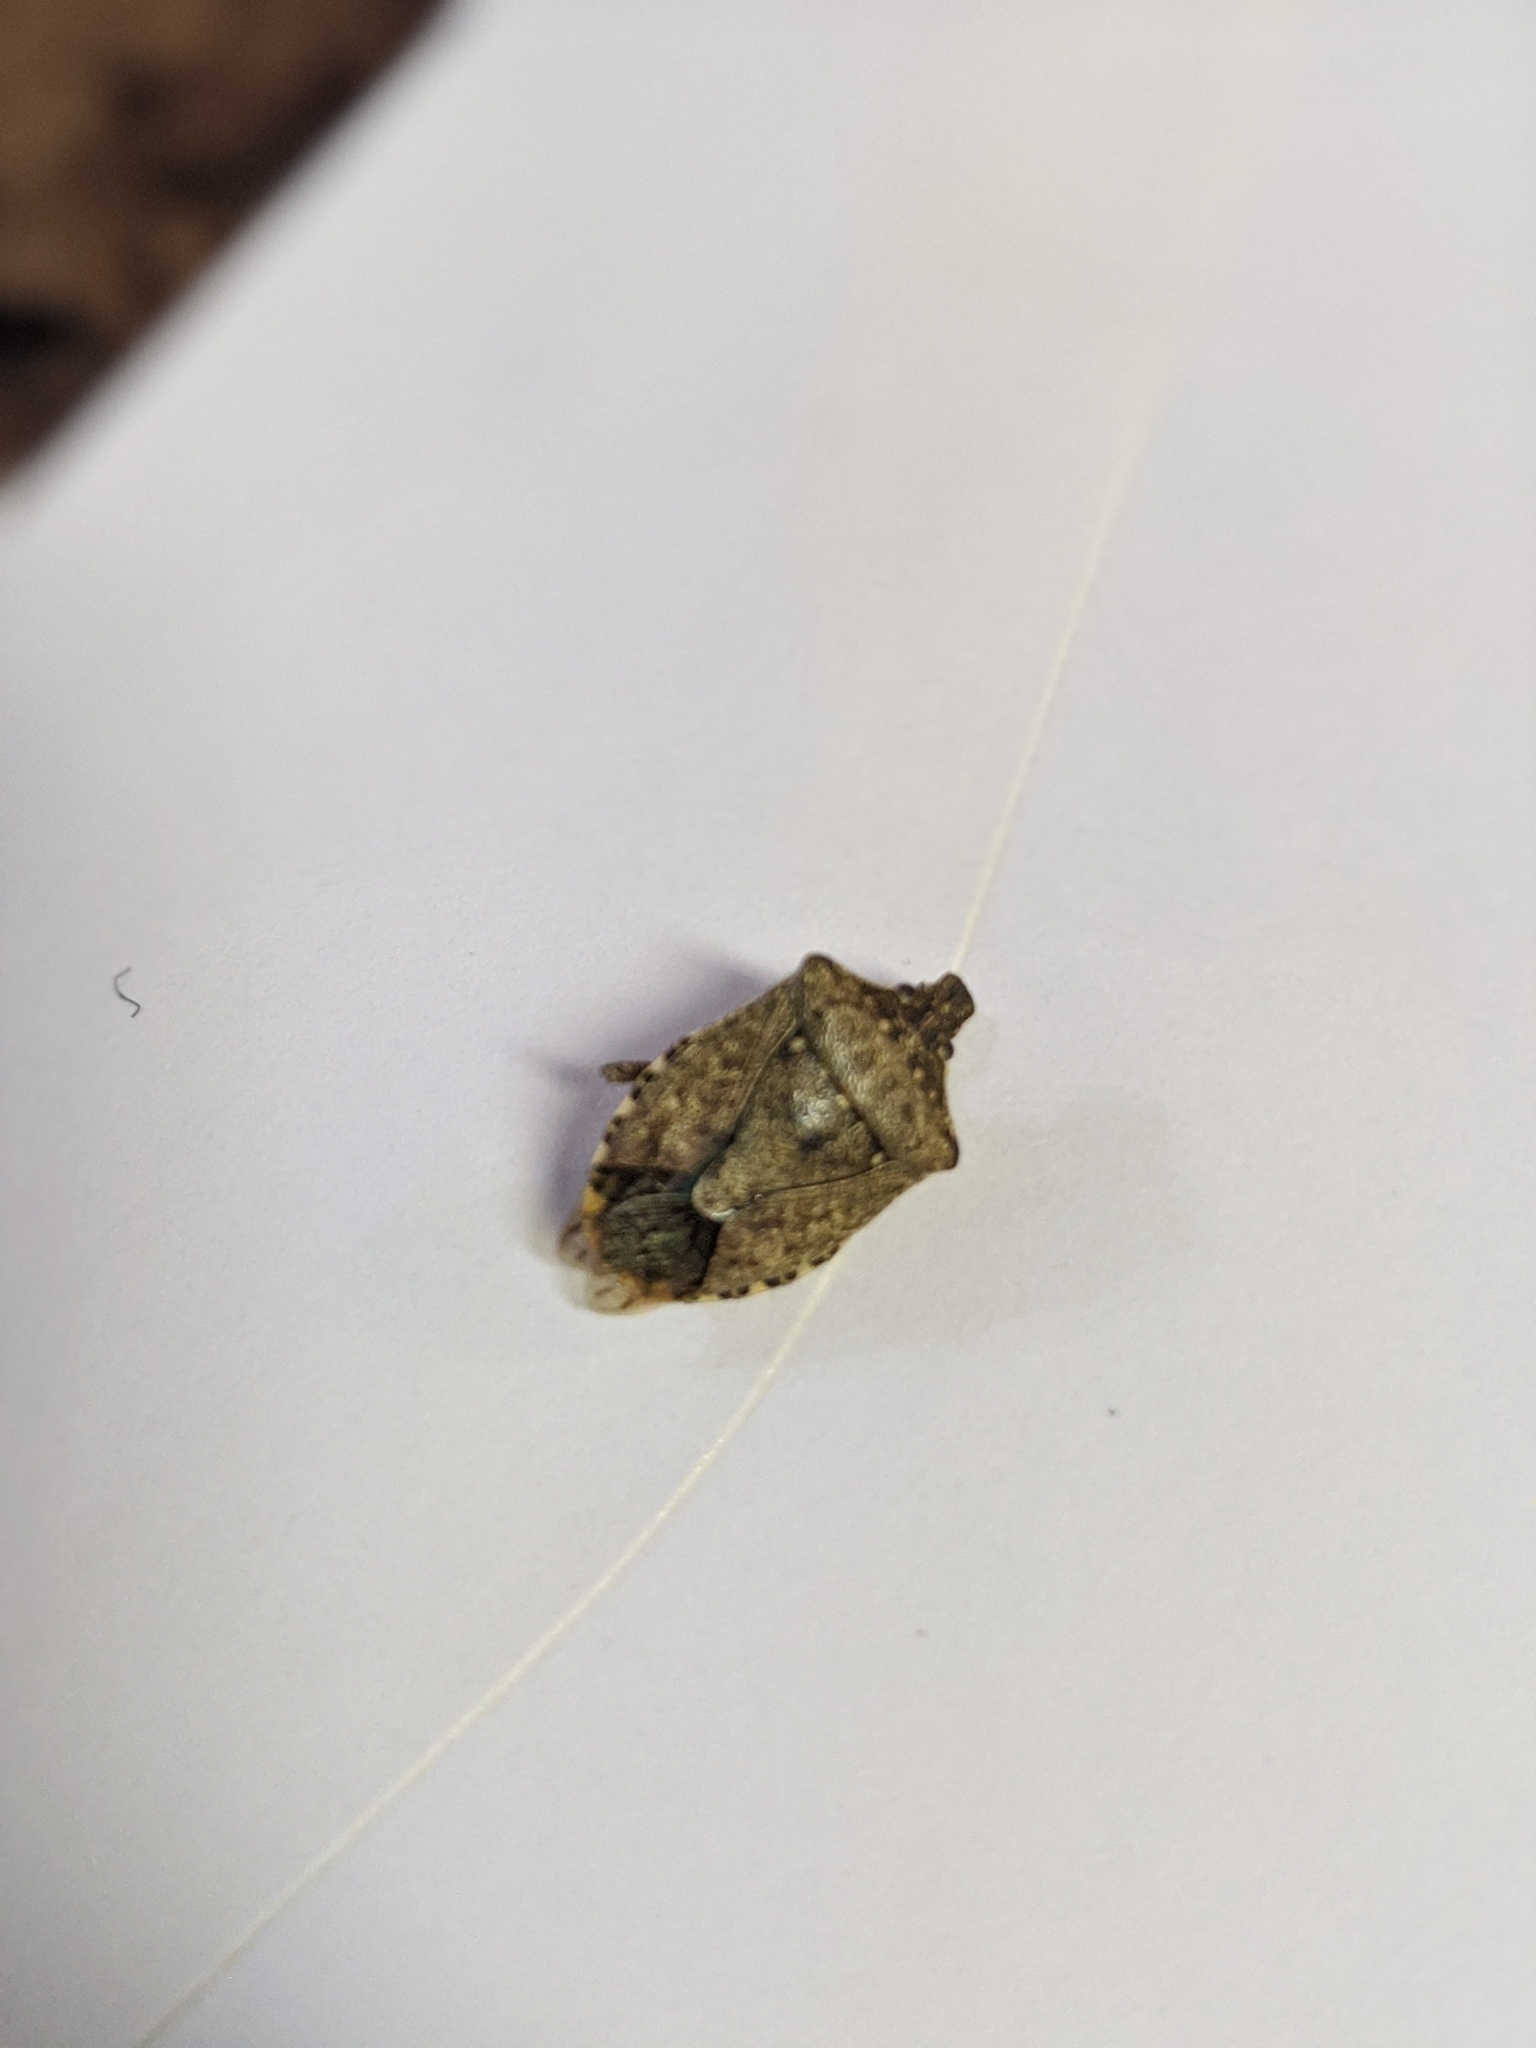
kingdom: Animalia
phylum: Arthropoda
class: Insecta
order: Hemiptera
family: Pentatomidae
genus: Halyomorpha
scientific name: Halyomorpha halys
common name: Brown marmorated stink bug
